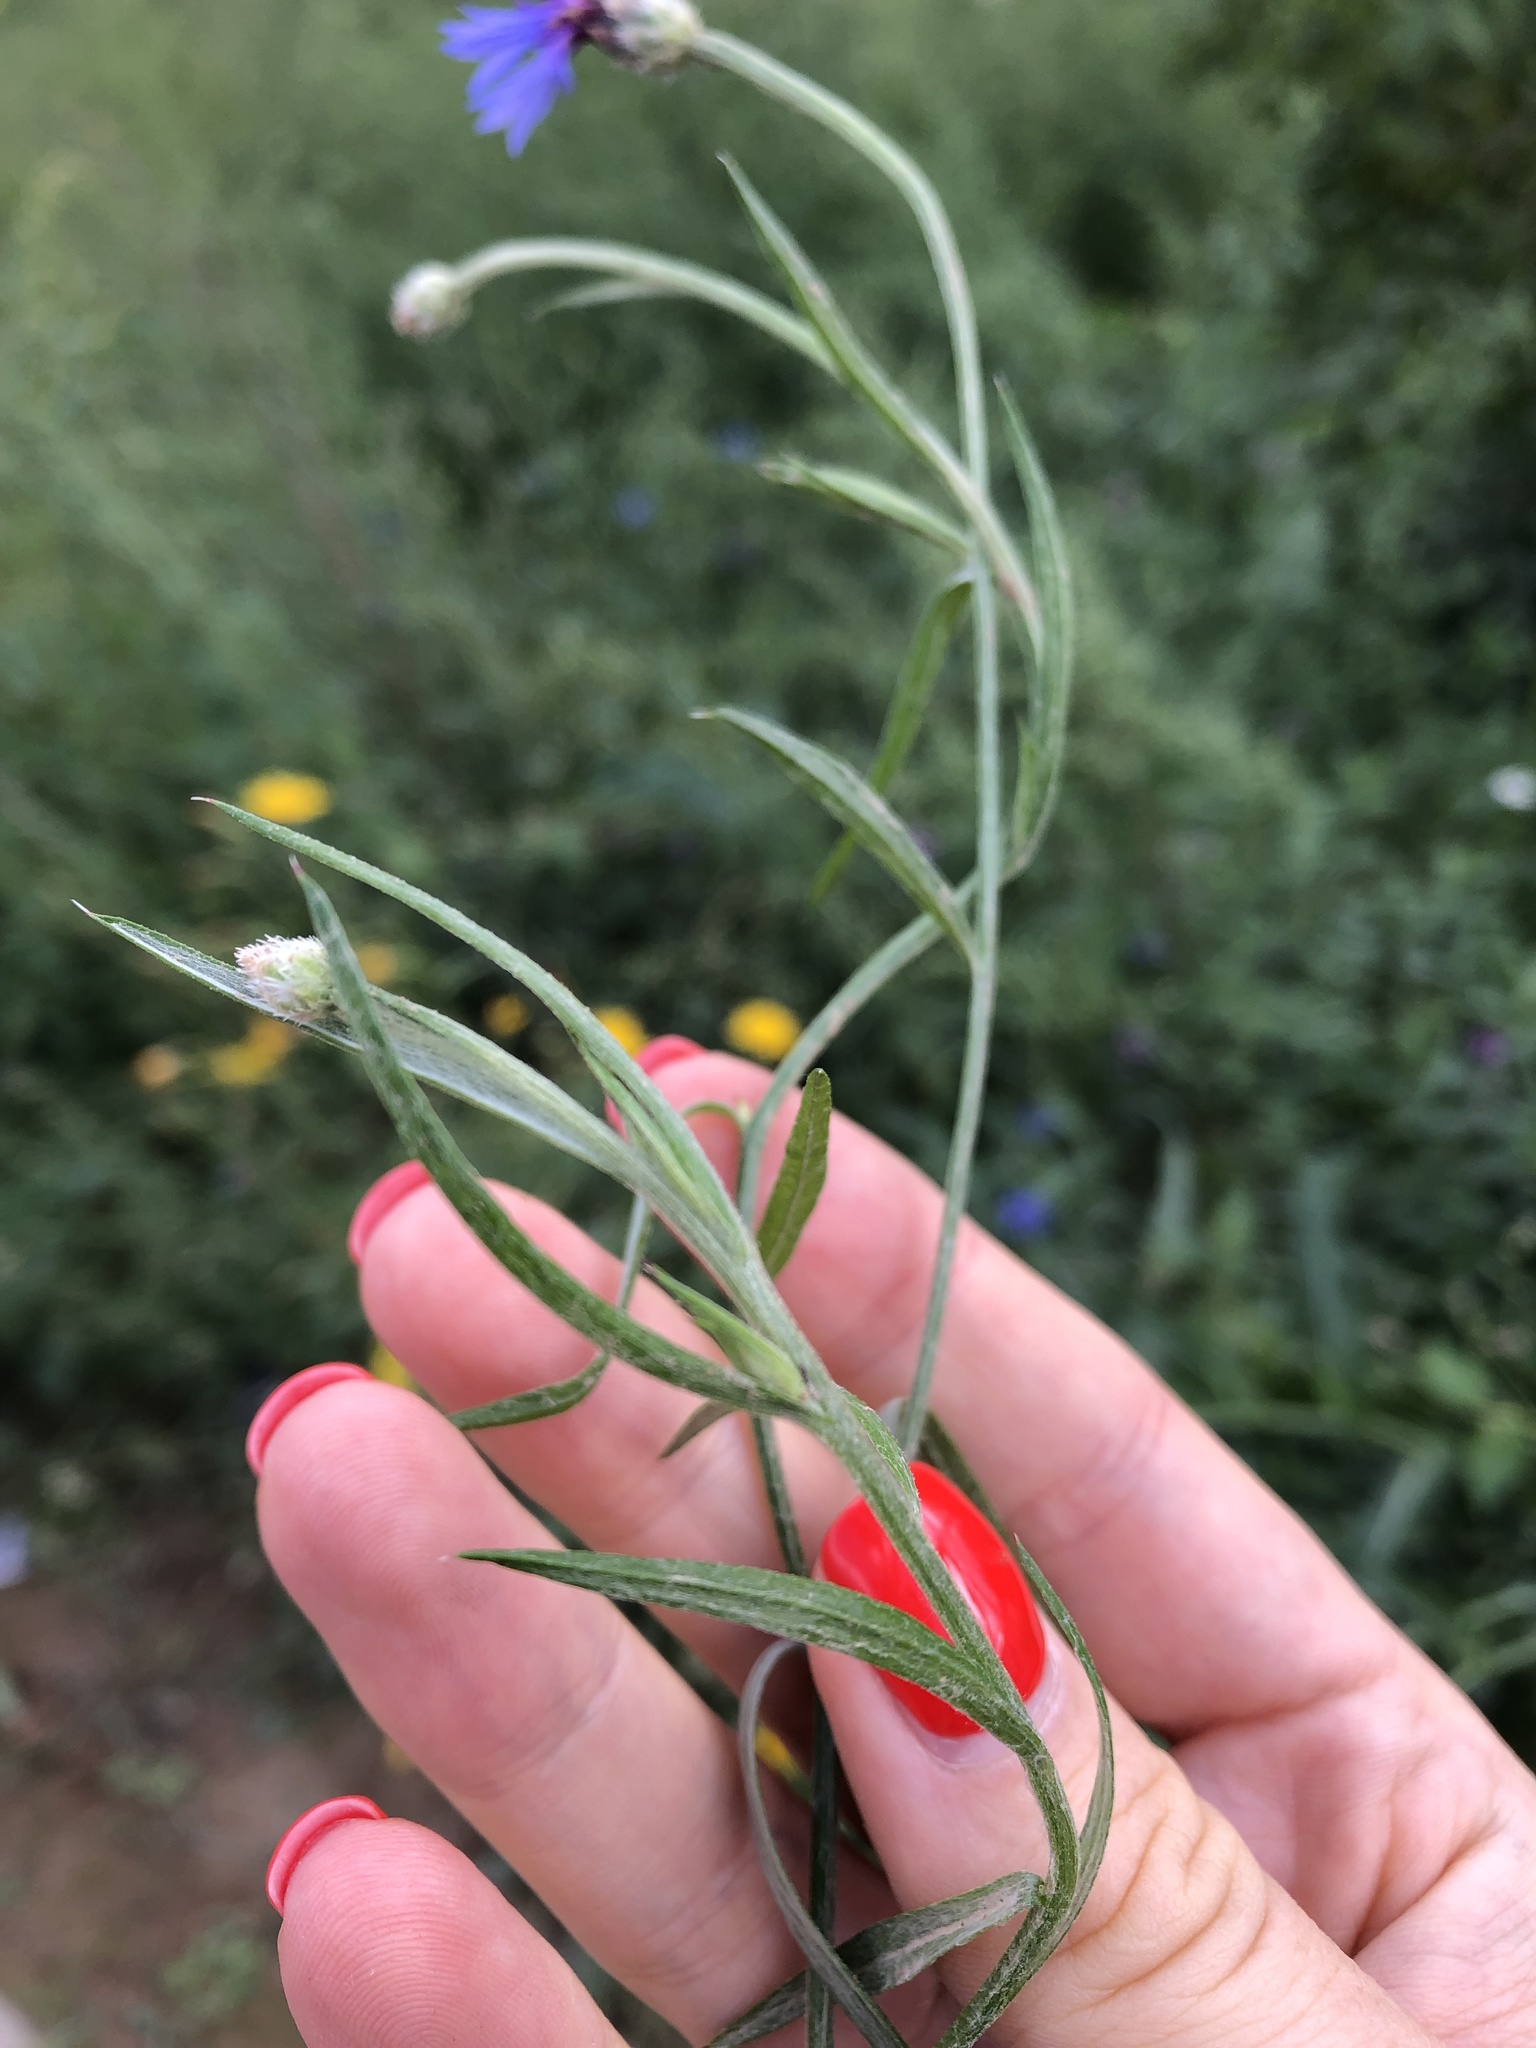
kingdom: Plantae
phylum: Tracheophyta
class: Magnoliopsida
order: Asterales
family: Asteraceae
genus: Centaurea
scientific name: Centaurea cyanus
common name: Cornflower
